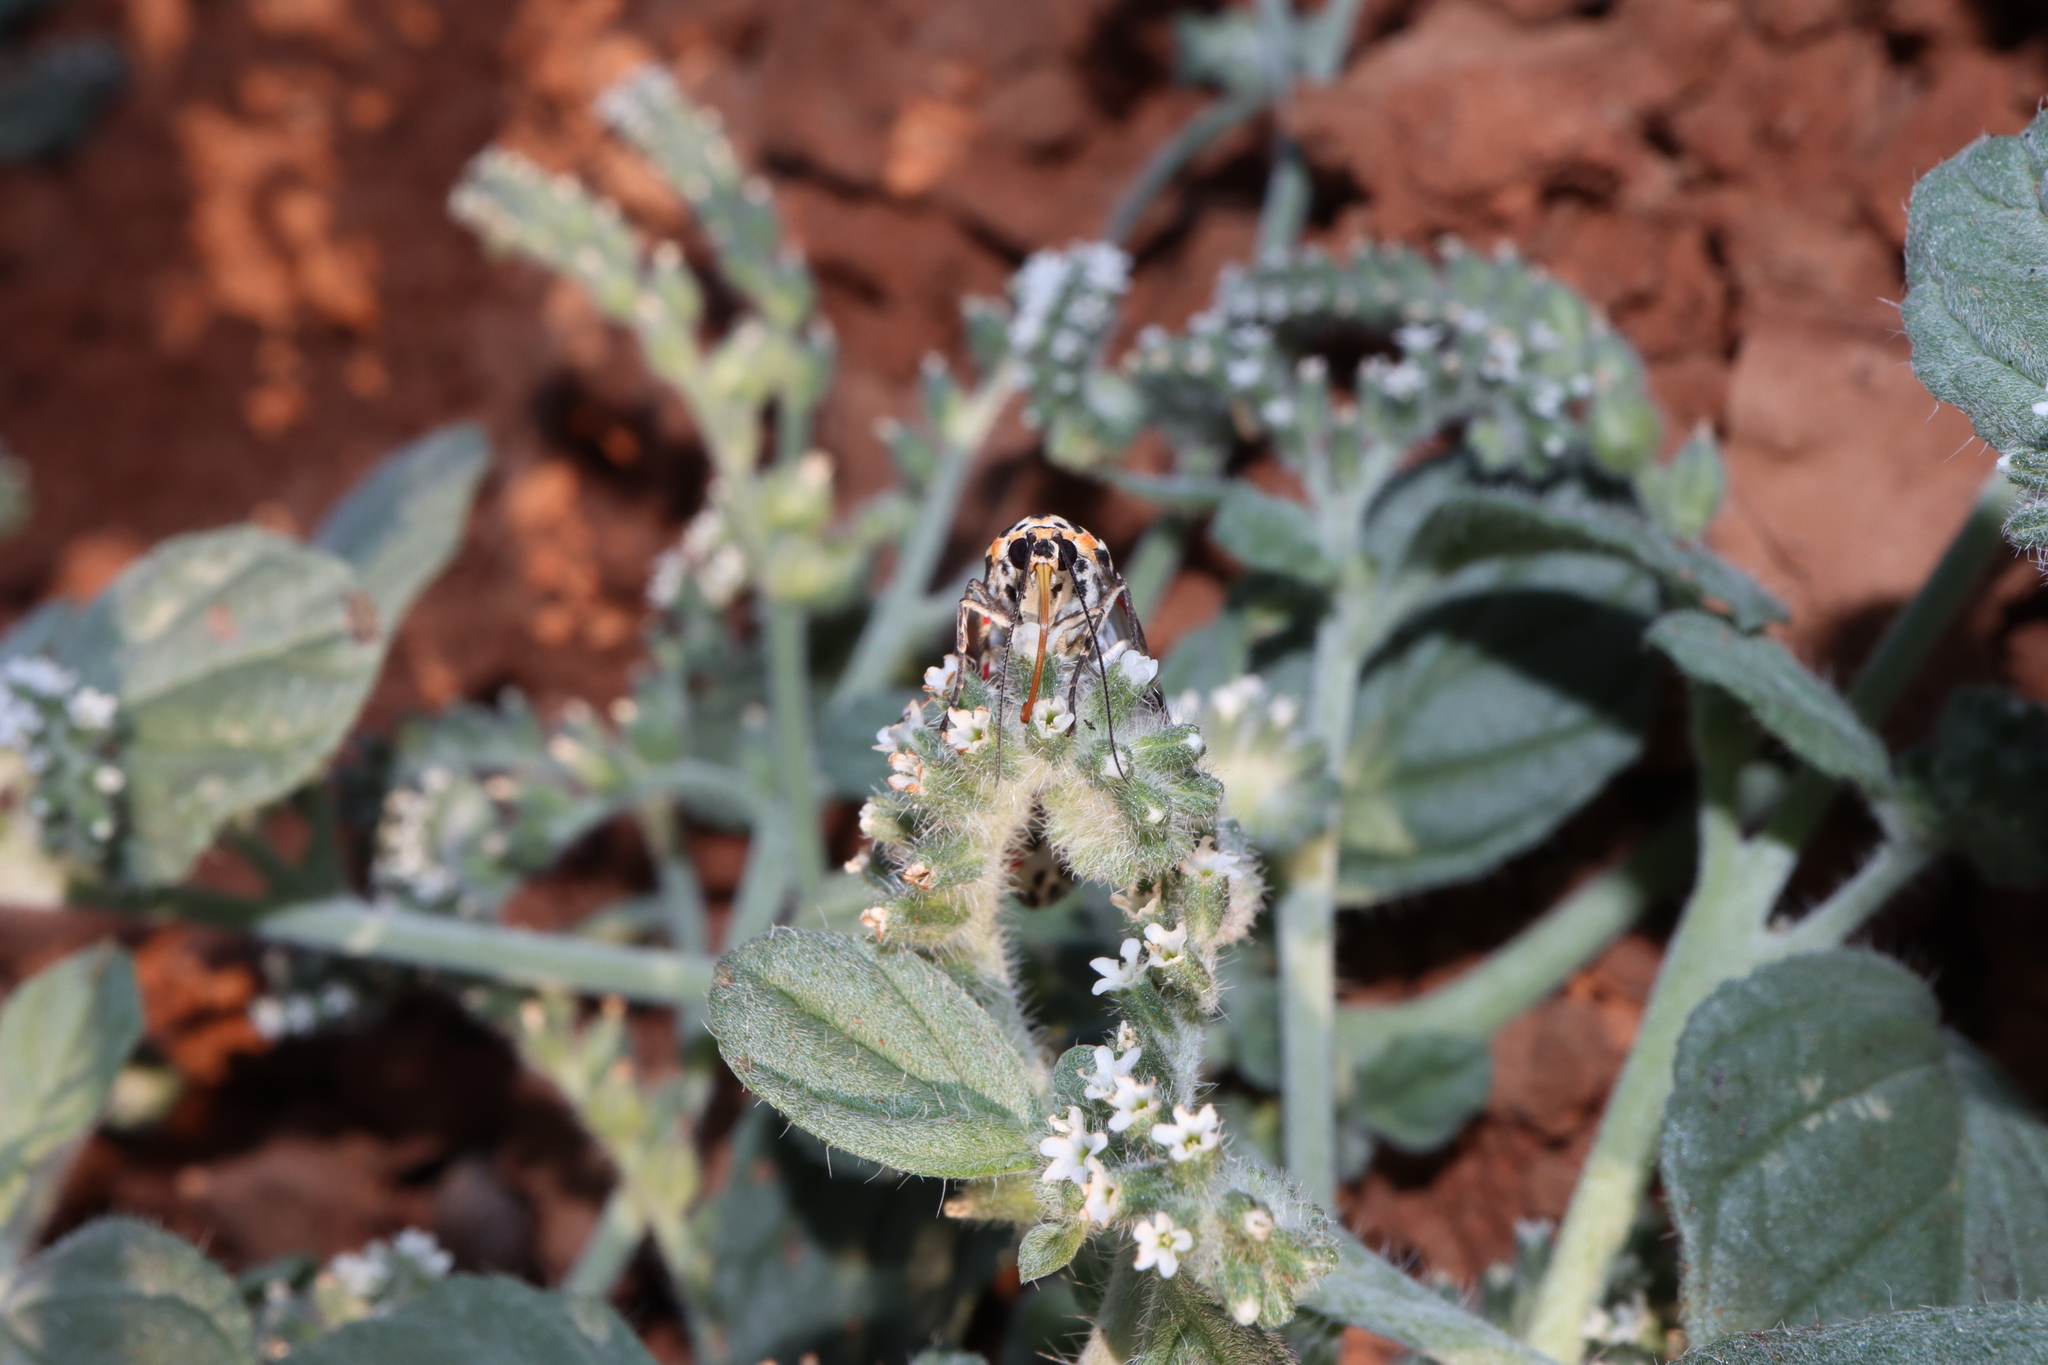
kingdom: Animalia
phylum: Arthropoda
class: Insecta
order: Lepidoptera
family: Erebidae
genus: Utetheisa
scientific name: Utetheisa pulchelloides
